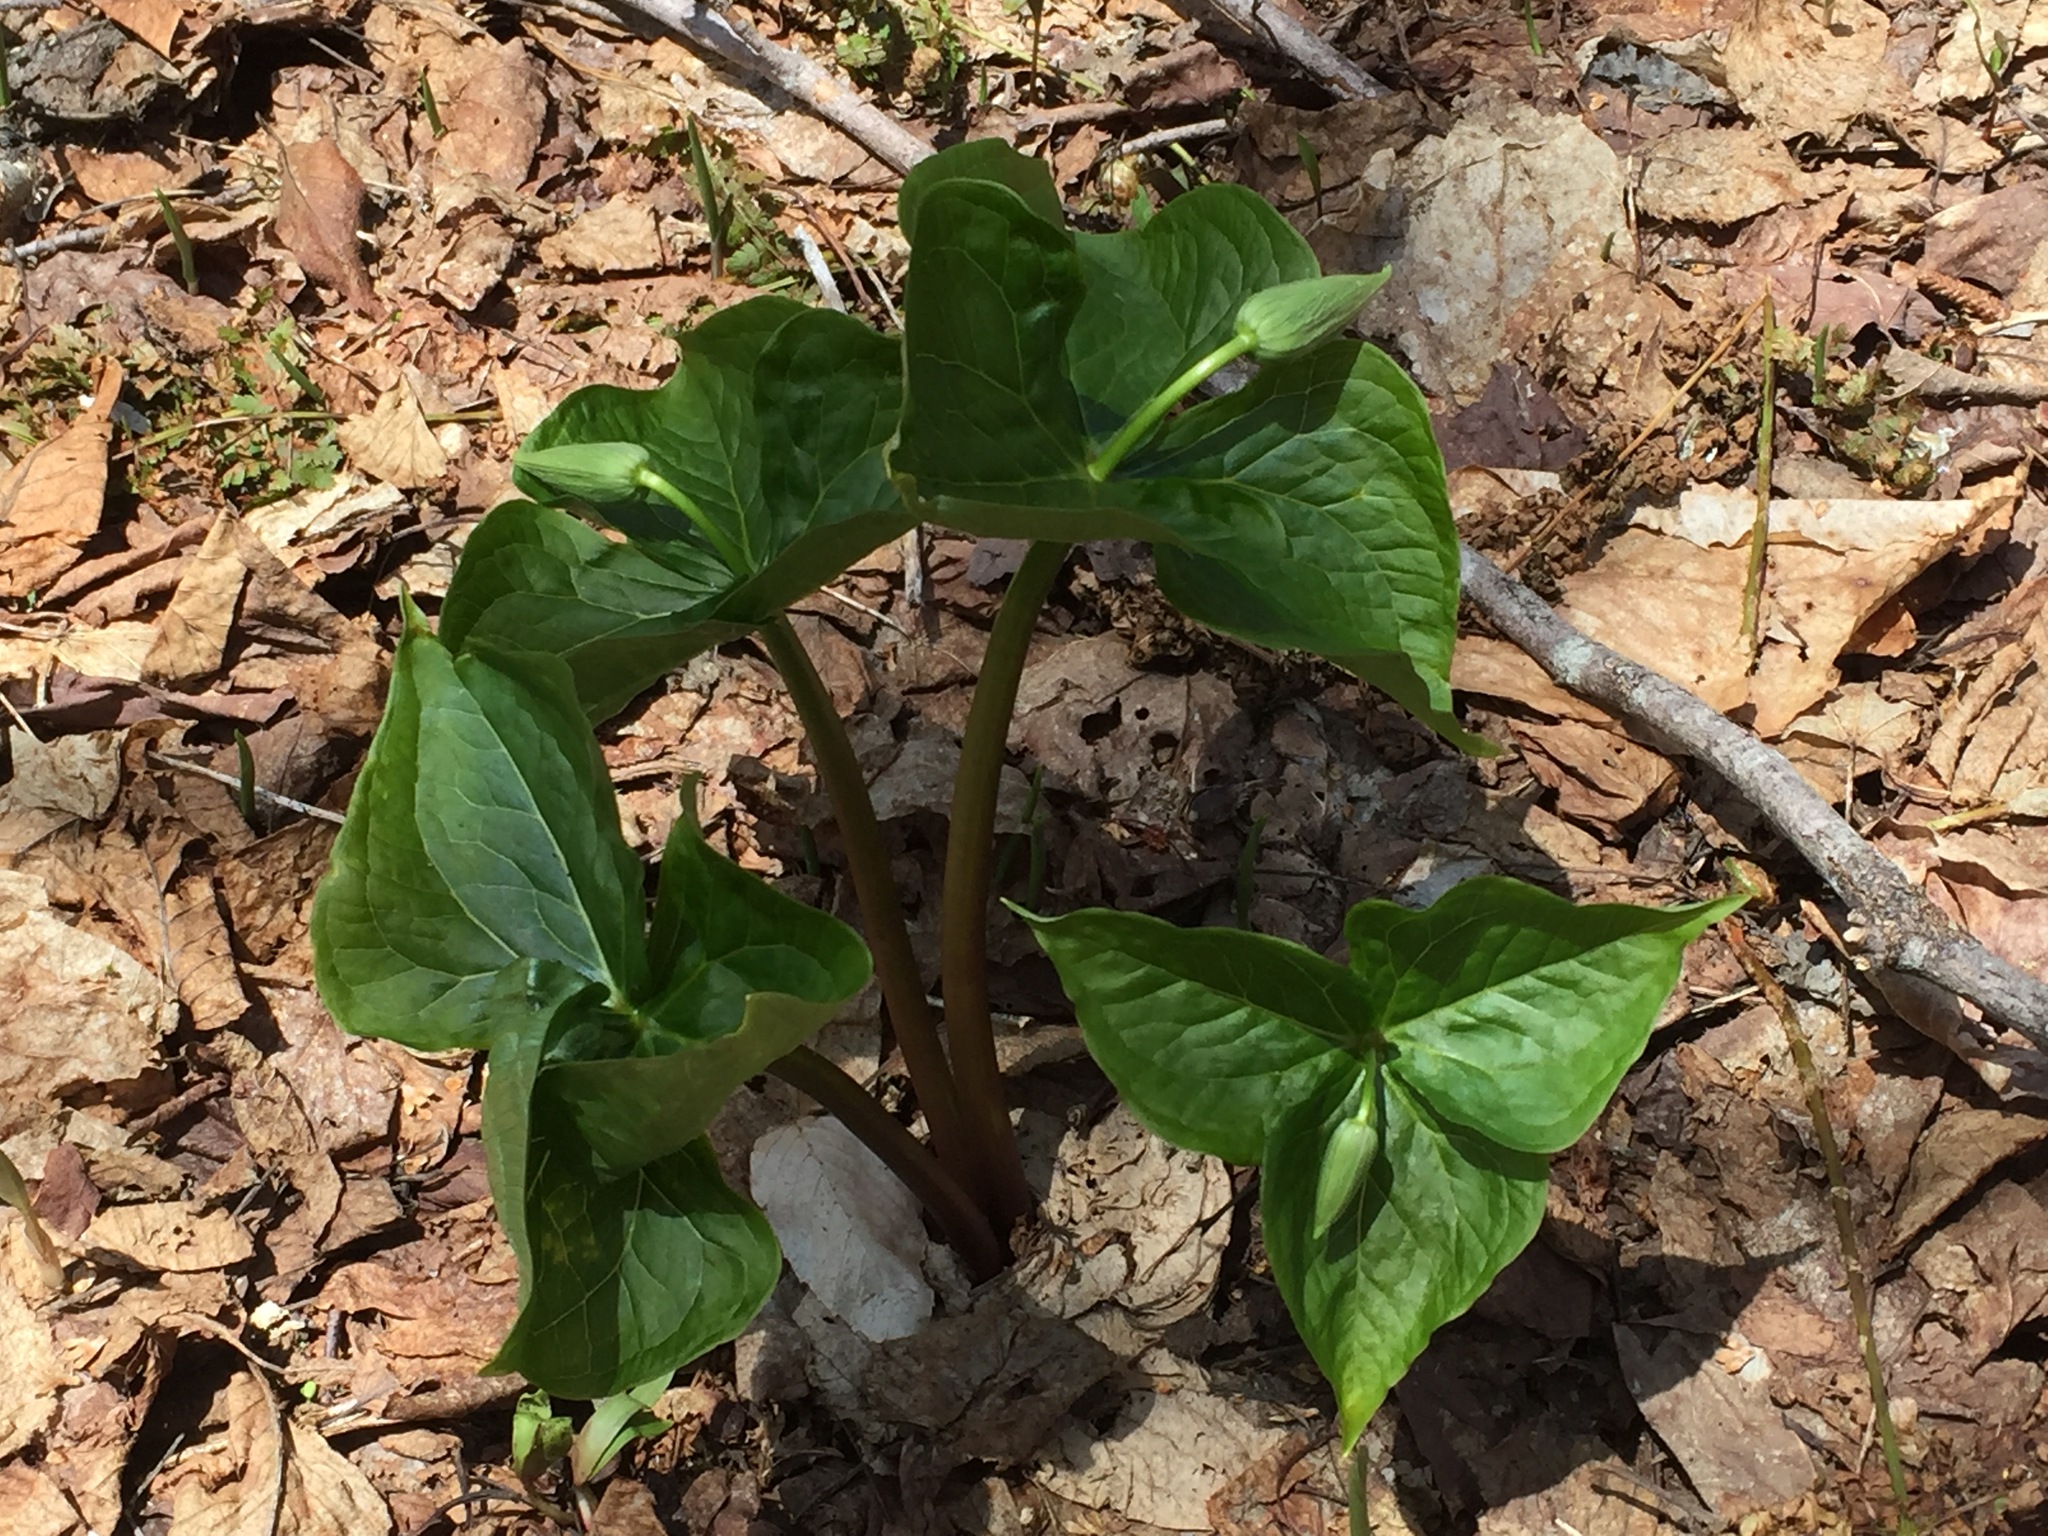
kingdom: Plantae
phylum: Tracheophyta
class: Liliopsida
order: Liliales
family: Melanthiaceae
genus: Trillium
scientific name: Trillium erectum
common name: Purple trillium
